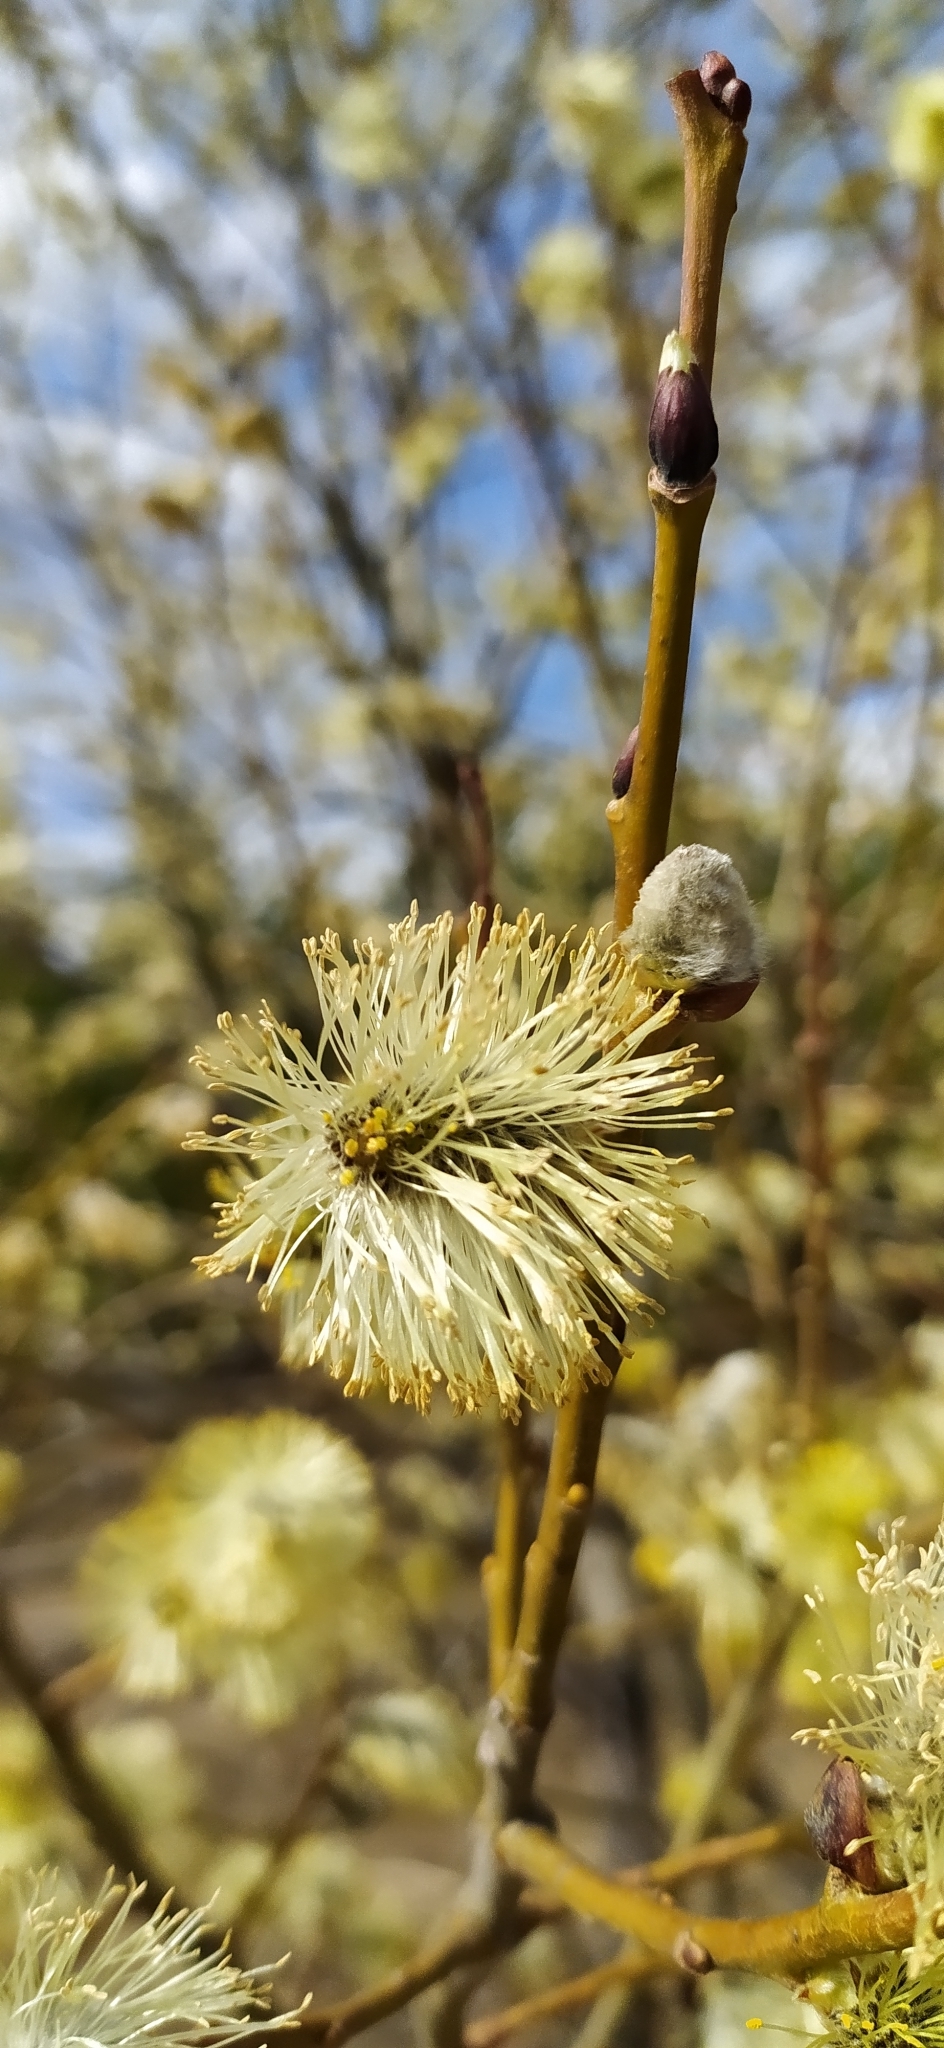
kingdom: Plantae
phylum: Tracheophyta
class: Magnoliopsida
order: Malpighiales
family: Salicaceae
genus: Salix
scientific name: Salix caprea
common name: Goat willow
